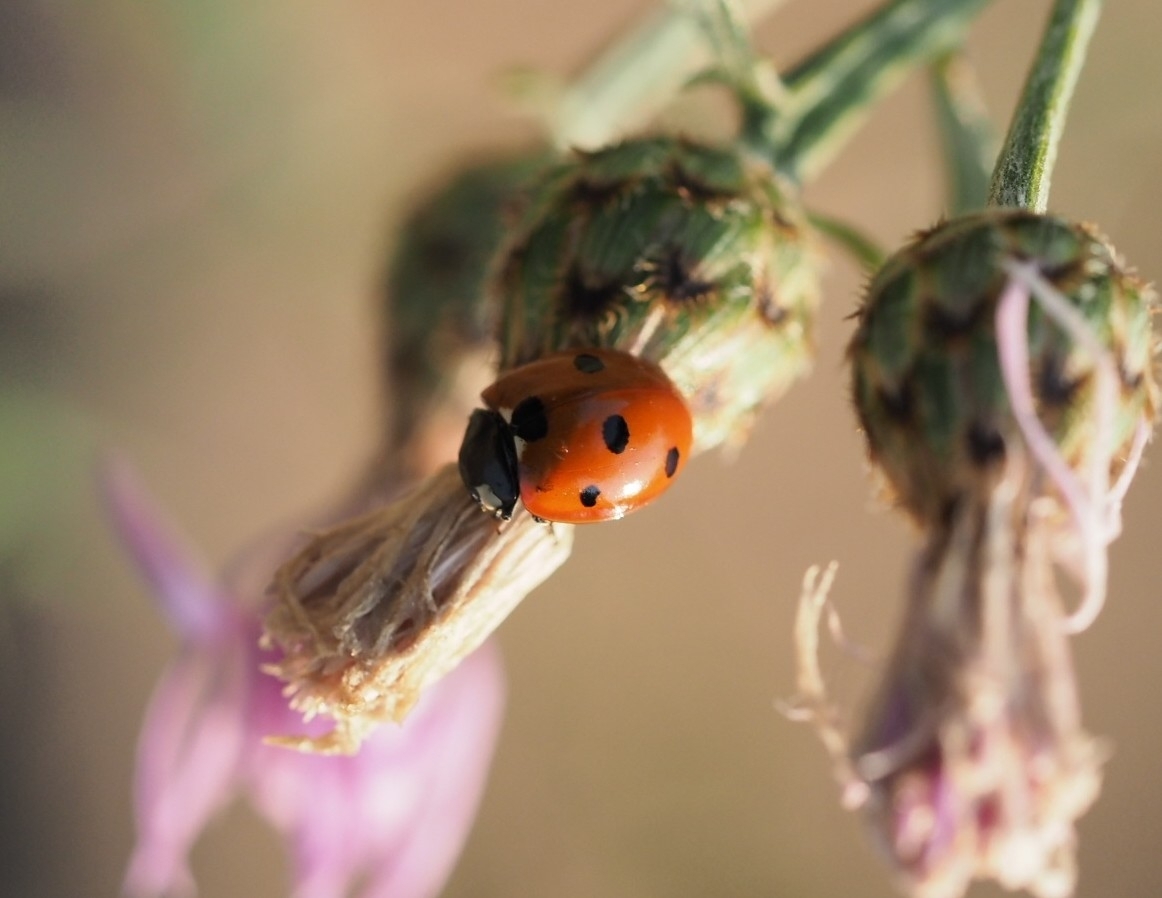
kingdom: Animalia
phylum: Arthropoda
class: Insecta
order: Coleoptera
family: Coccinellidae
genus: Coccinella
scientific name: Coccinella septempunctata
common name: Sevenspotted lady beetle
